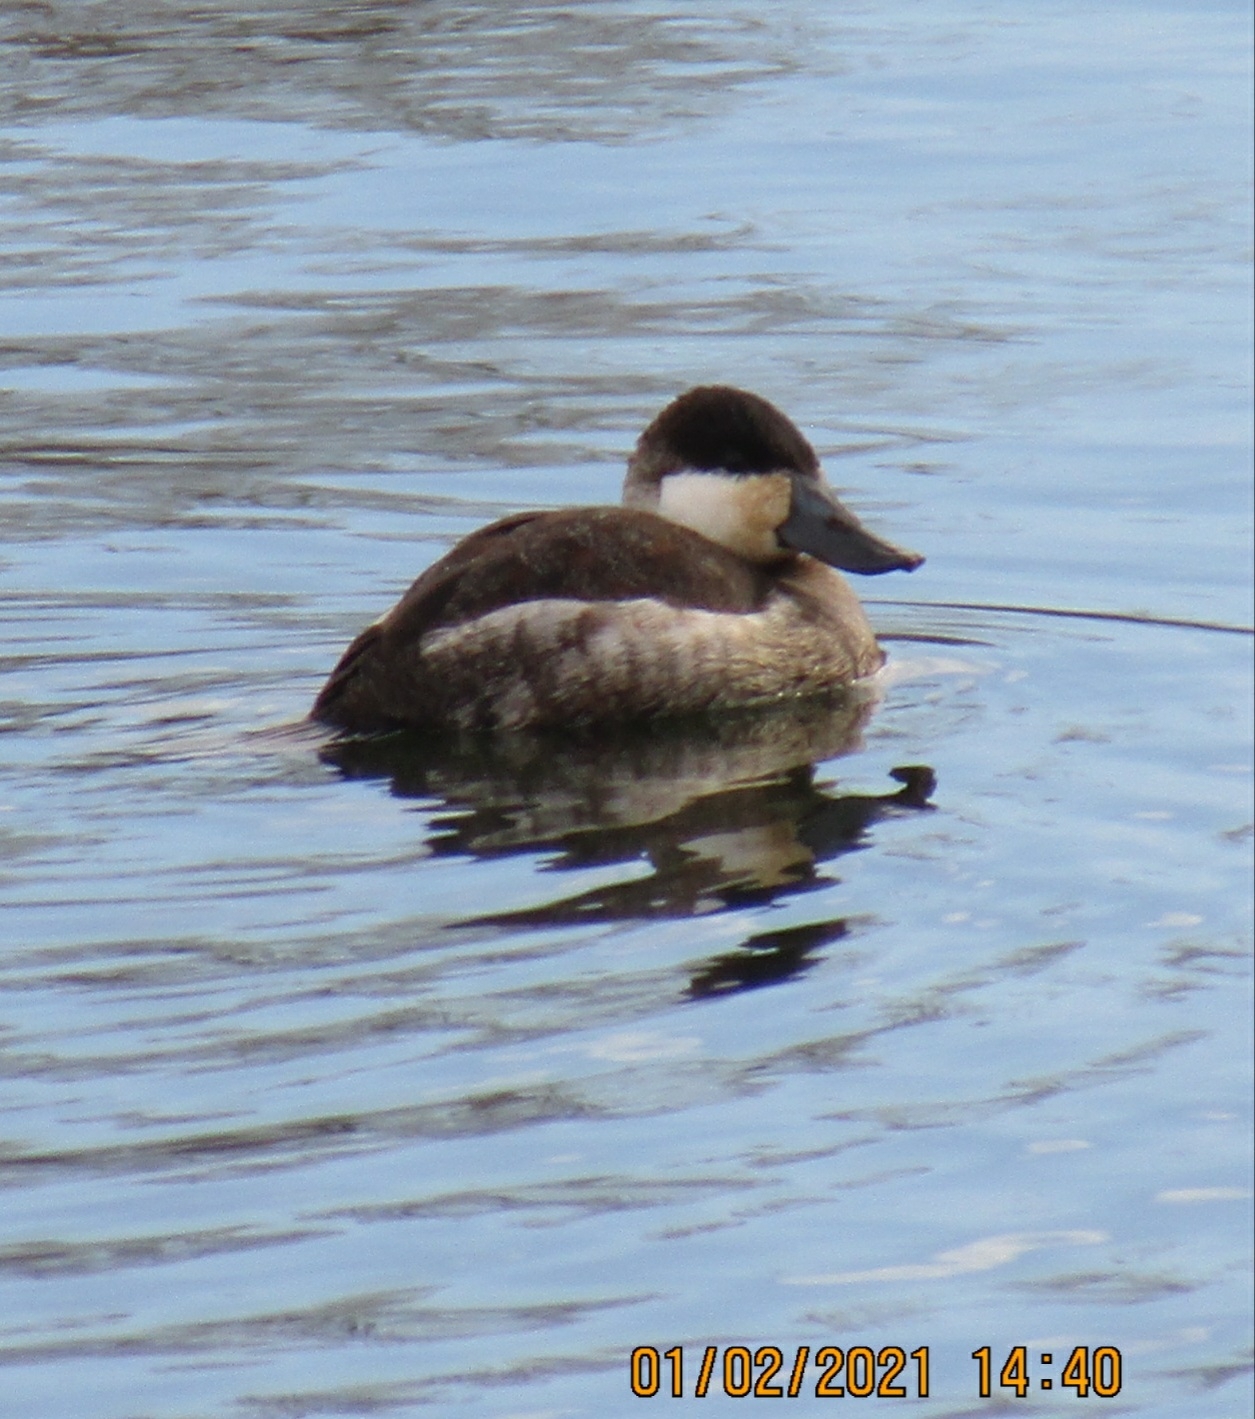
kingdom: Animalia
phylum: Chordata
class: Aves
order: Anseriformes
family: Anatidae
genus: Oxyura
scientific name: Oxyura jamaicensis
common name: Ruddy duck
